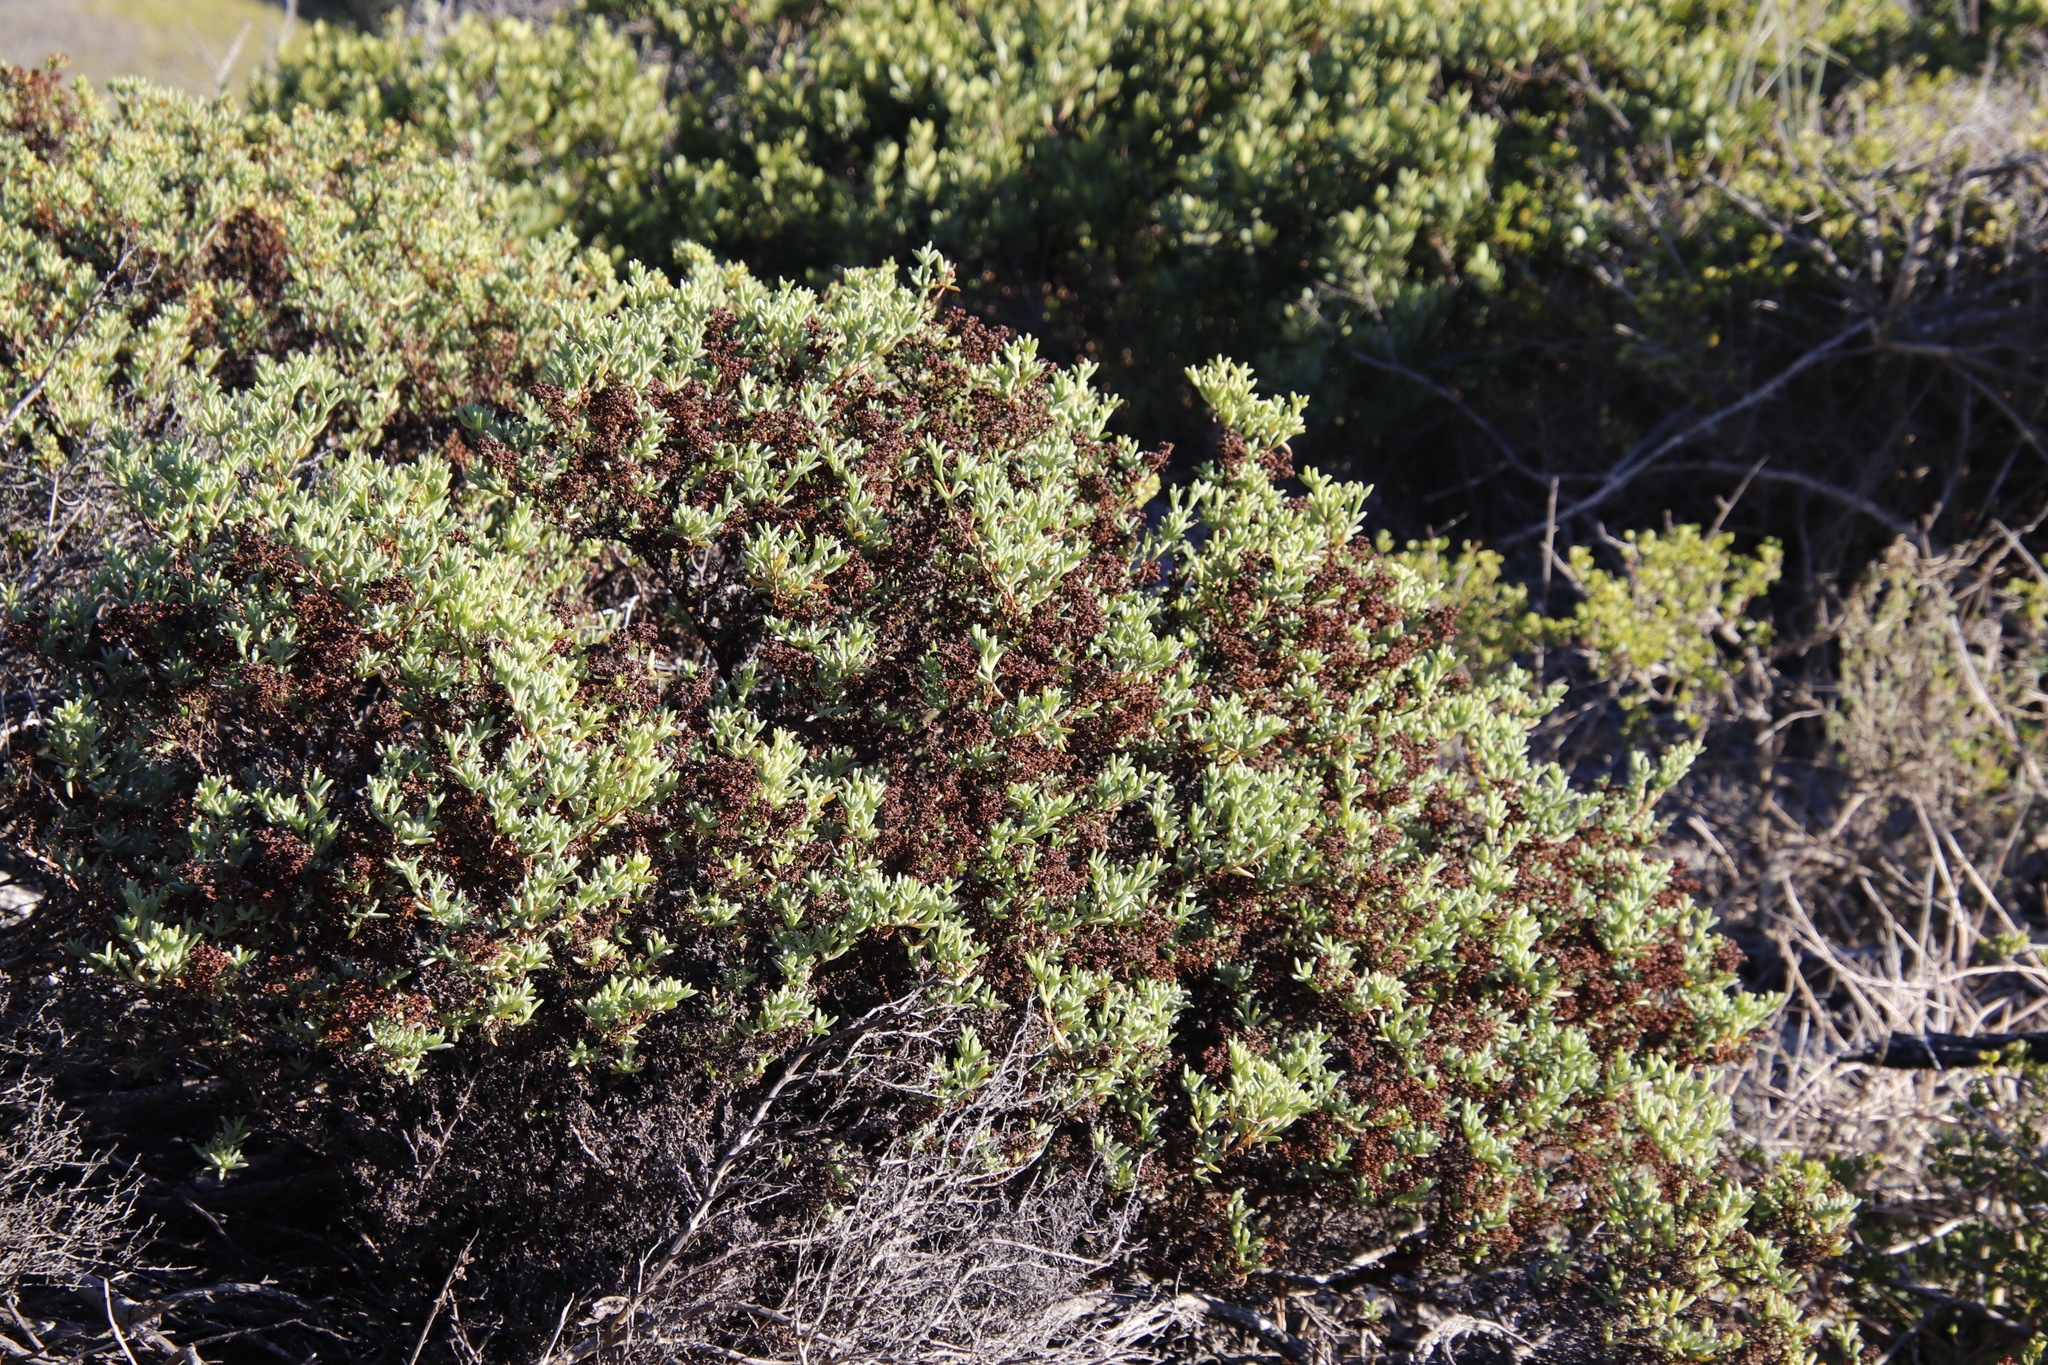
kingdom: Plantae
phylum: Tracheophyta
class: Magnoliopsida
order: Caryophyllales
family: Aizoaceae
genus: Ruschia
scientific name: Ruschia misera
